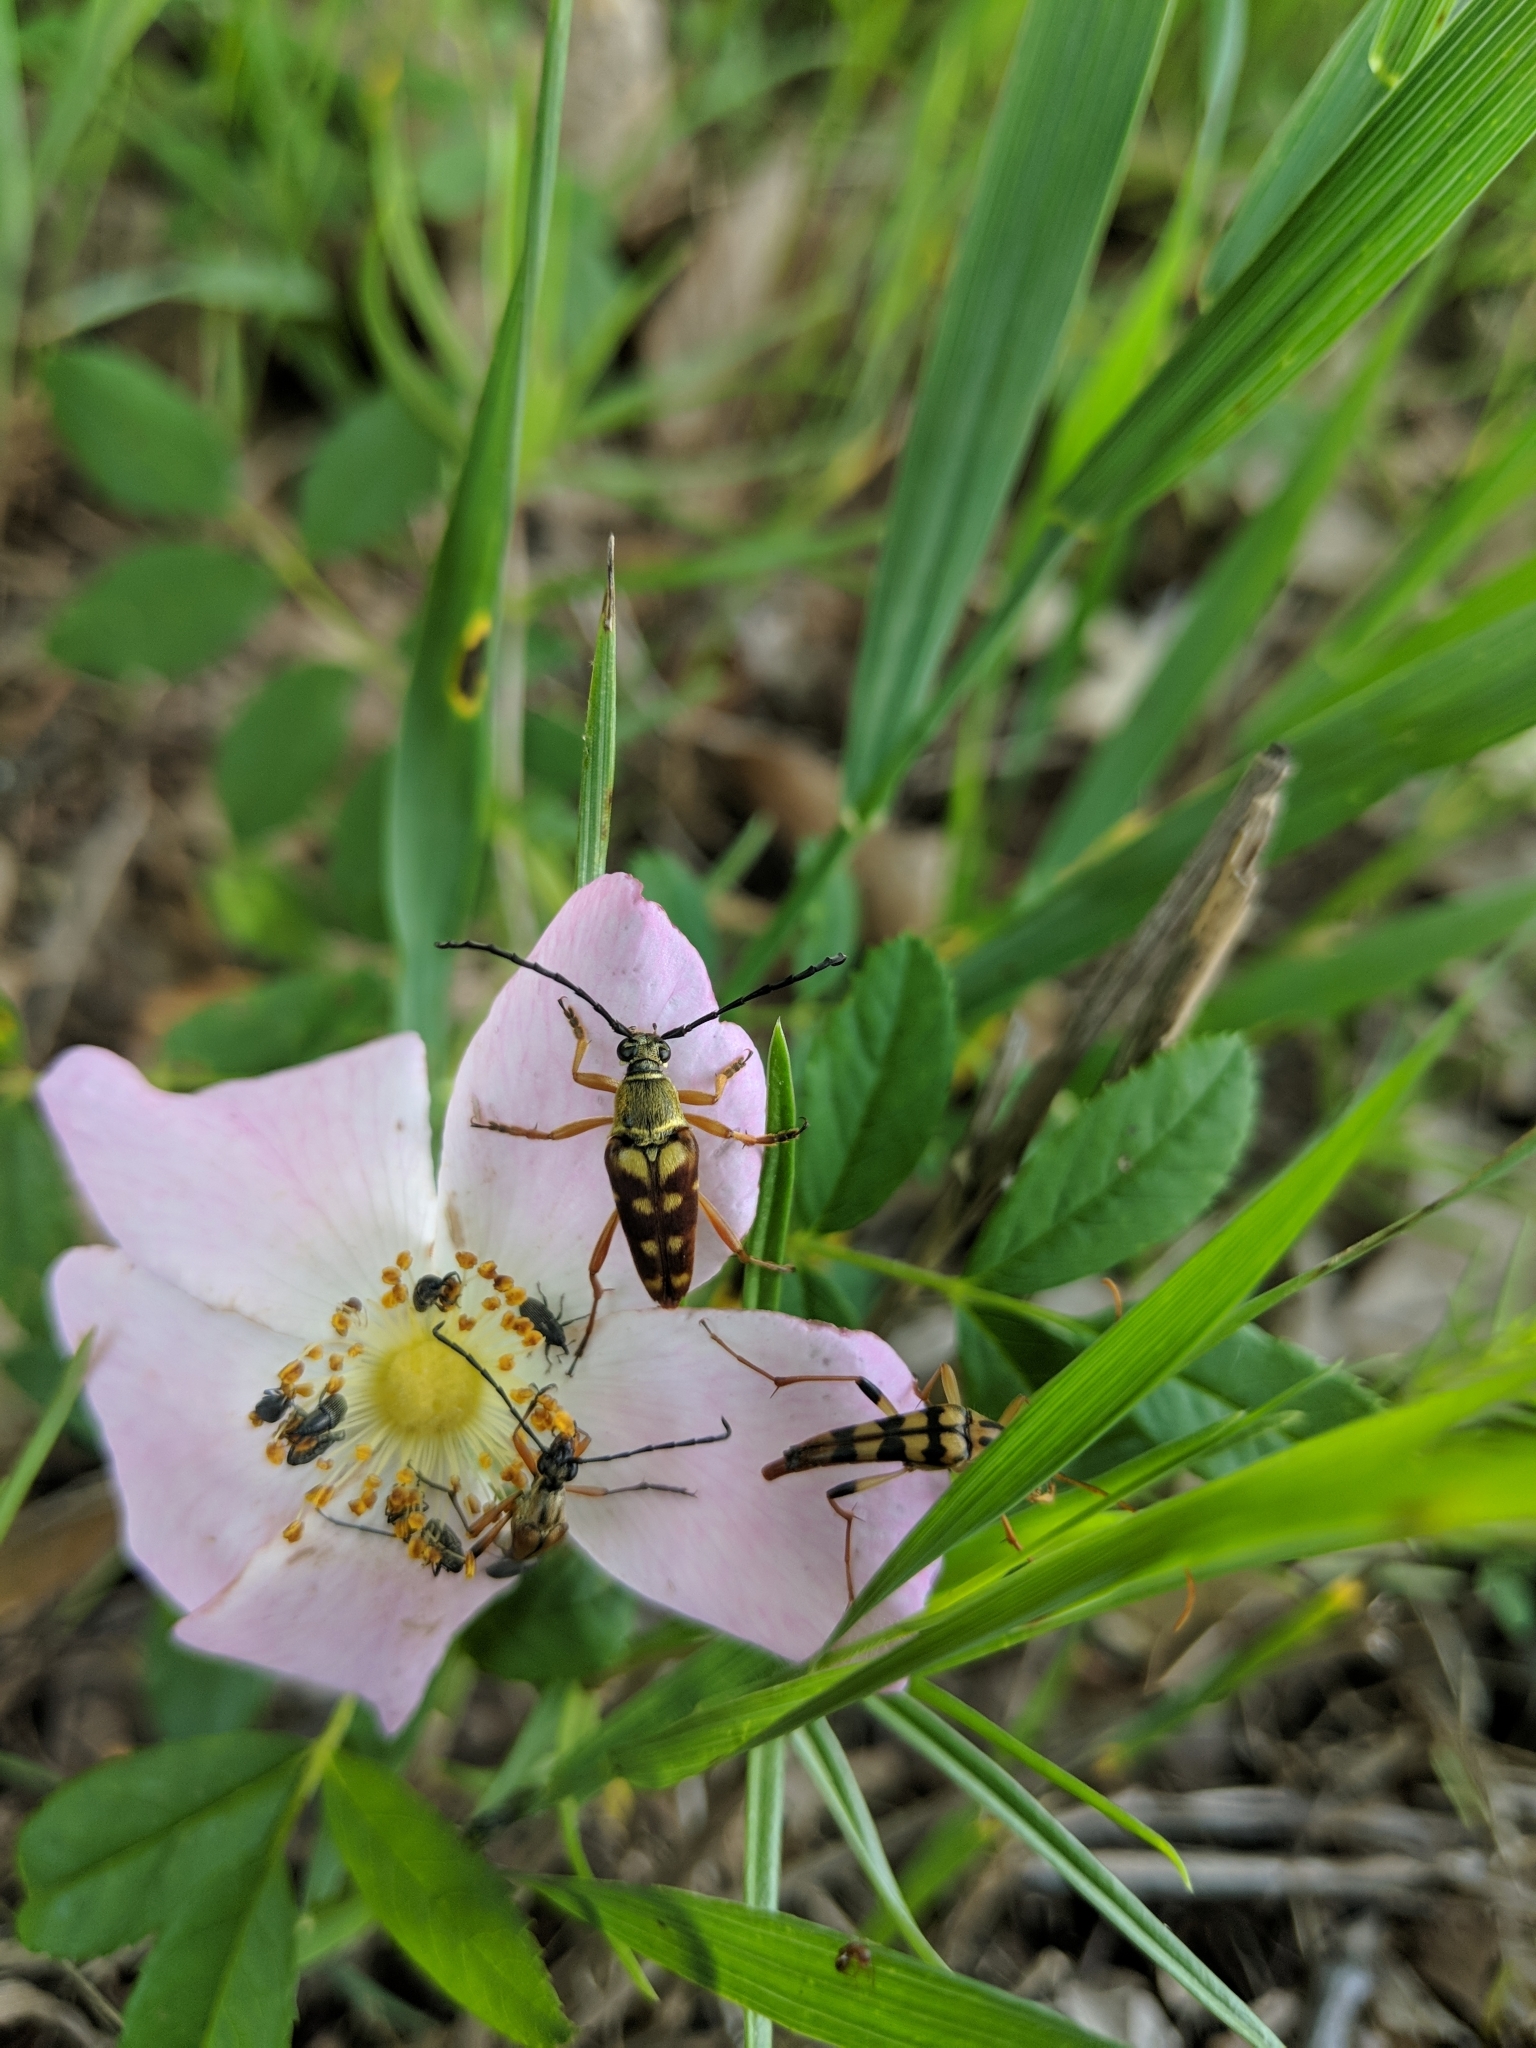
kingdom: Animalia
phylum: Arthropoda
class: Insecta
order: Coleoptera
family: Cerambycidae
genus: Strangalia
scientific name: Strangalia luteicornis
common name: Yellow-horned flower longhorn beetle
